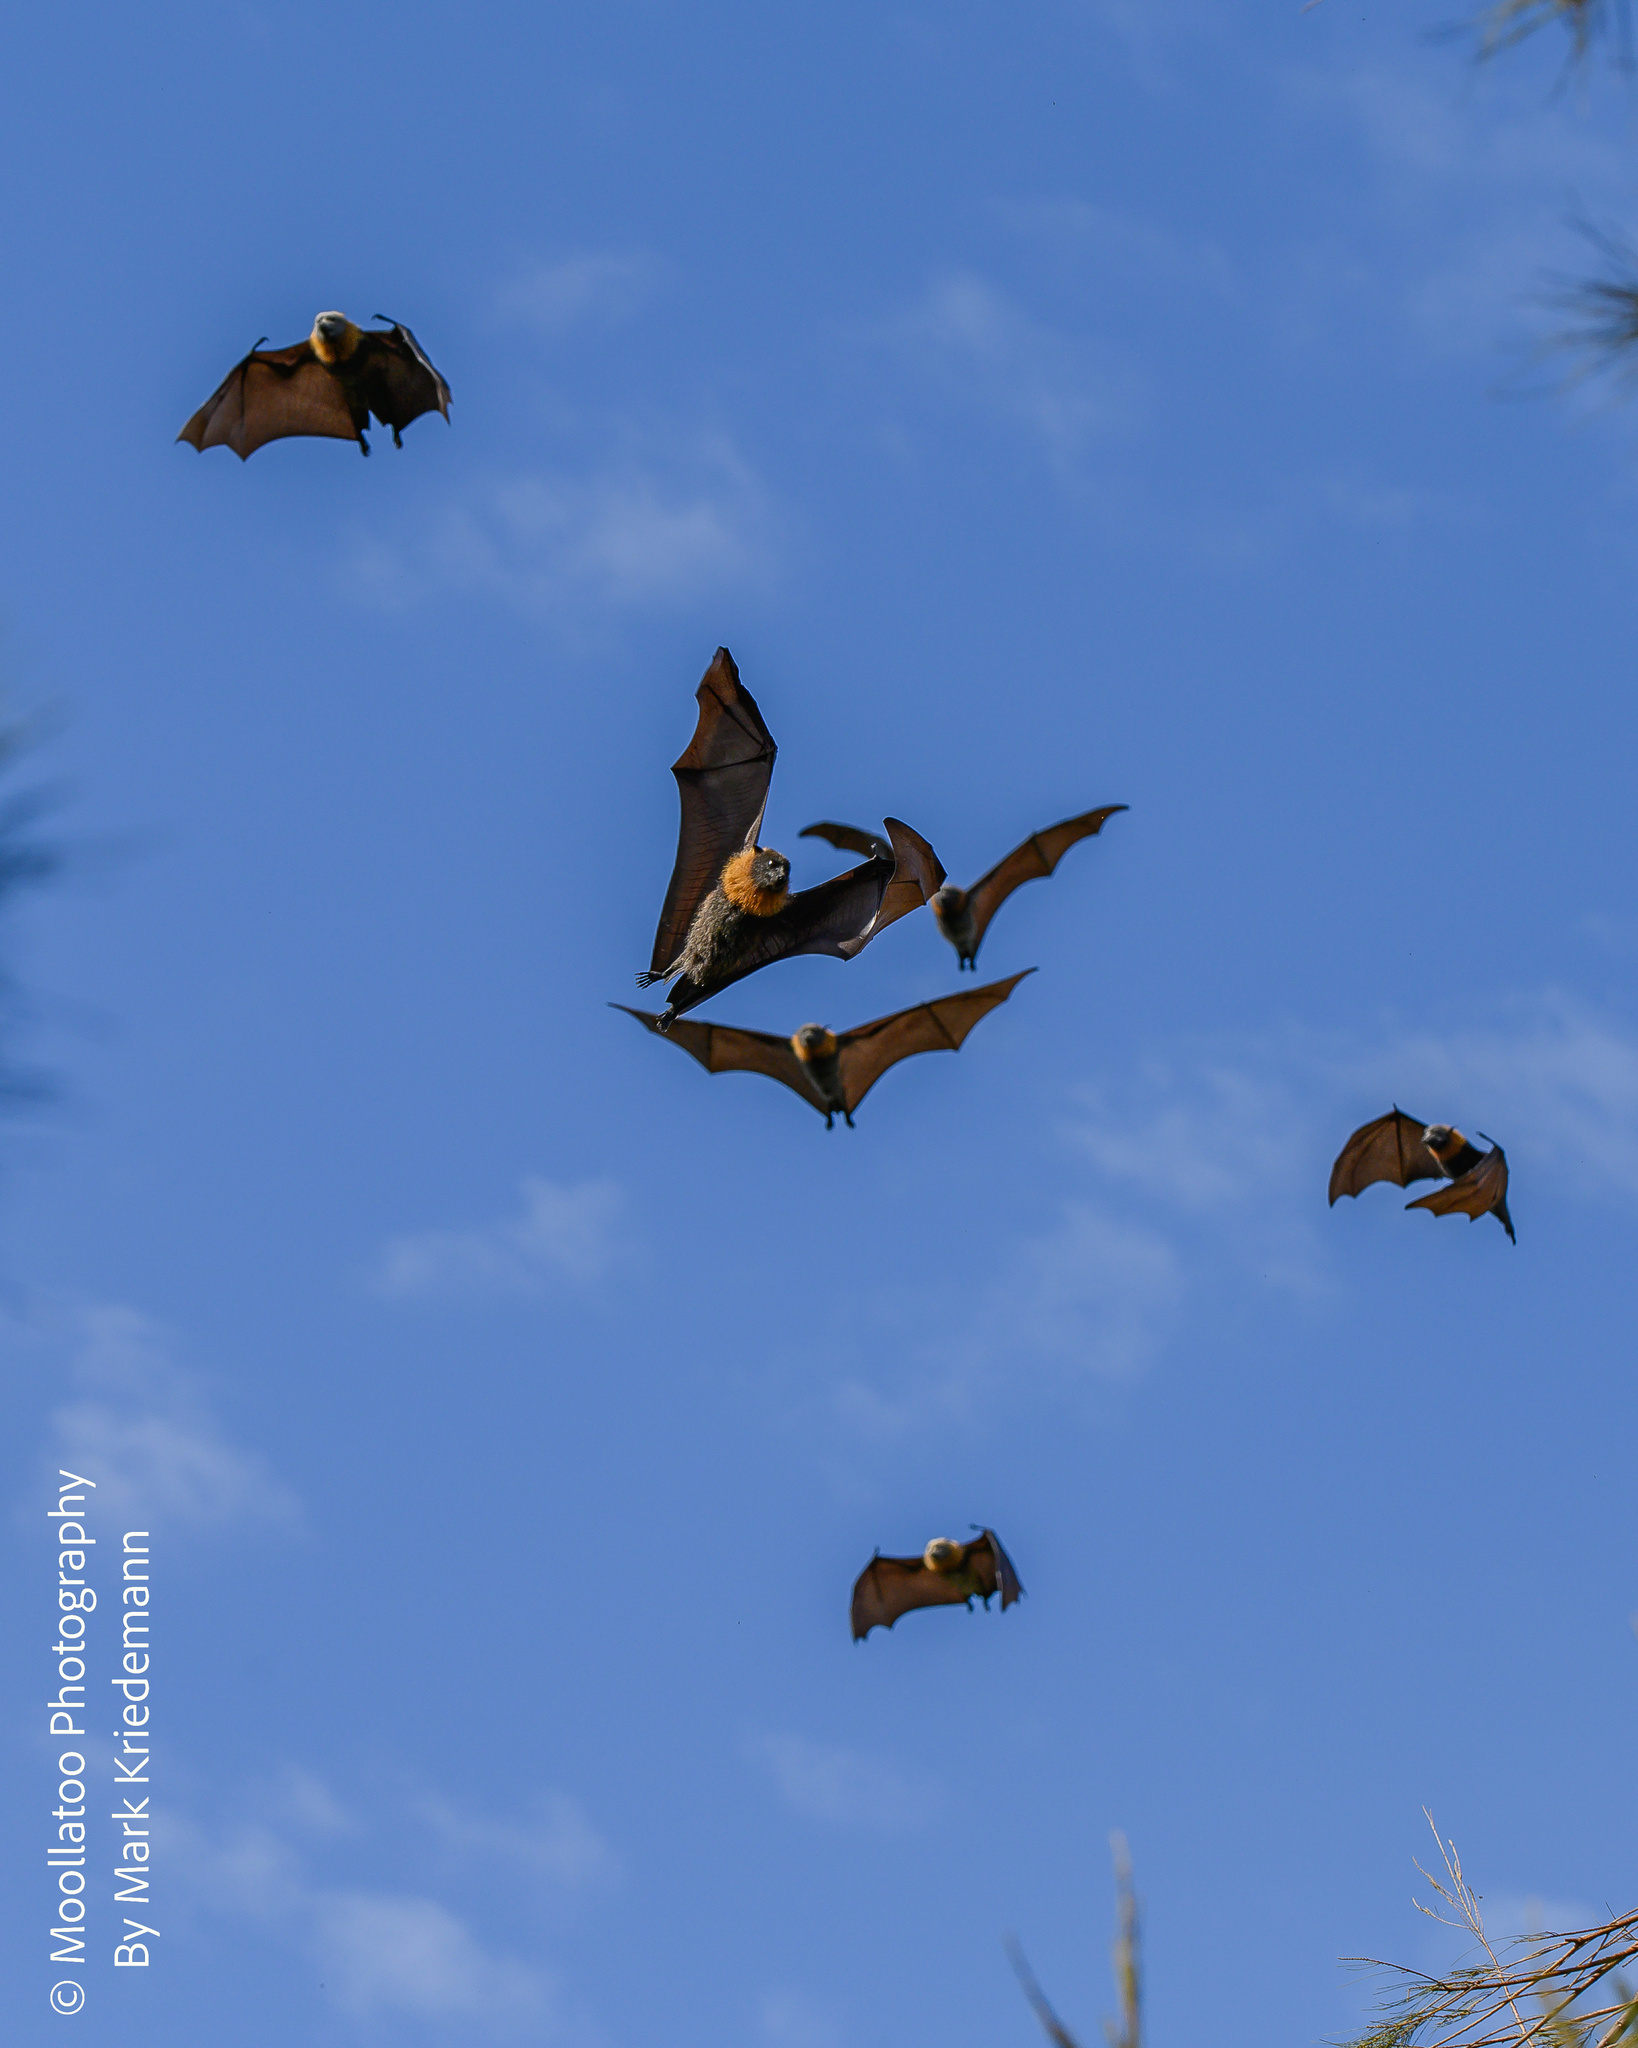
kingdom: Animalia
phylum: Chordata
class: Mammalia
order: Chiroptera
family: Pteropodidae
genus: Pteropus
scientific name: Pteropus poliocephalus
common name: Gray-headed flying fox
